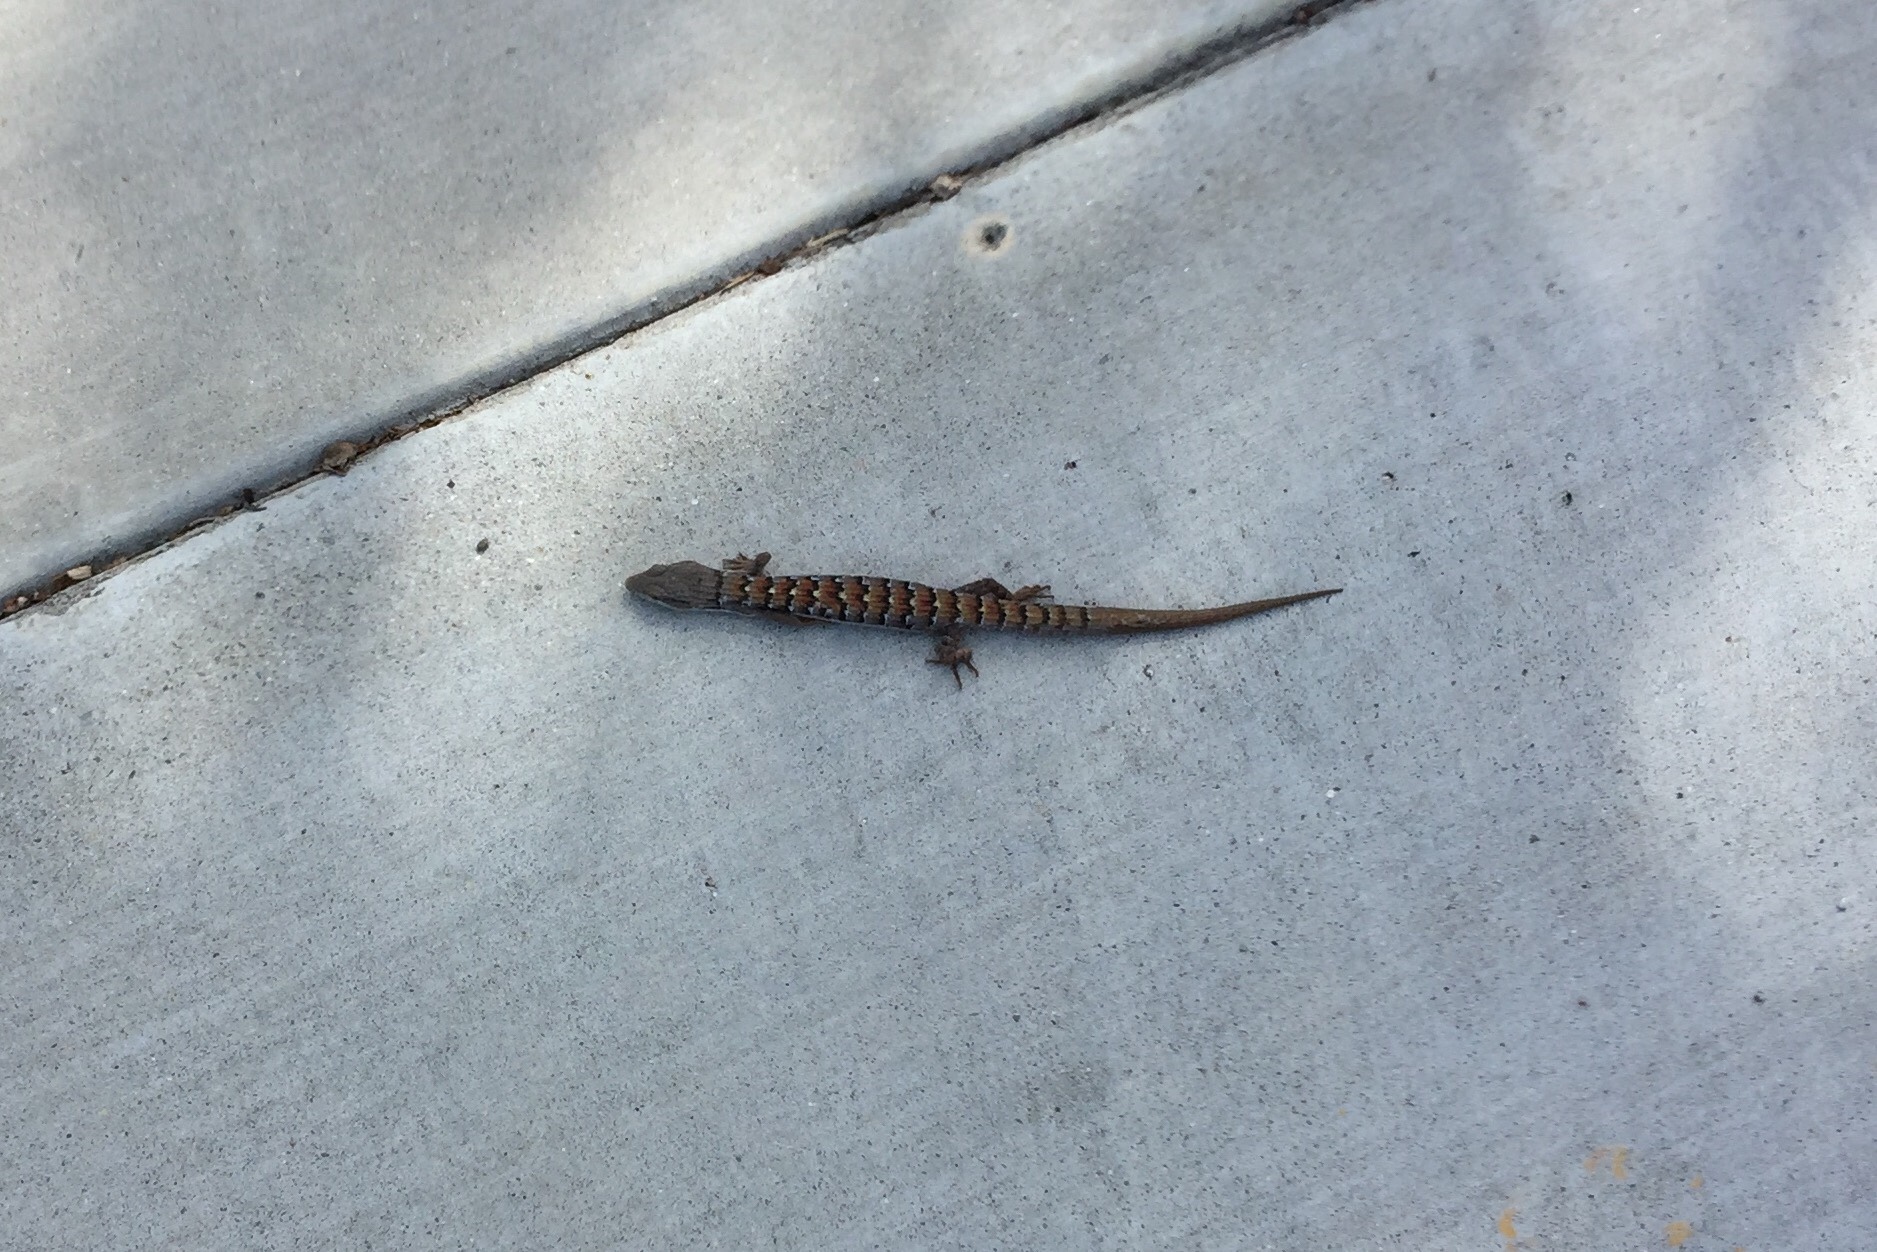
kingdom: Animalia
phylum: Chordata
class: Squamata
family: Anguidae
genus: Elgaria
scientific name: Elgaria multicarinata
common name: Southern alligator lizard
